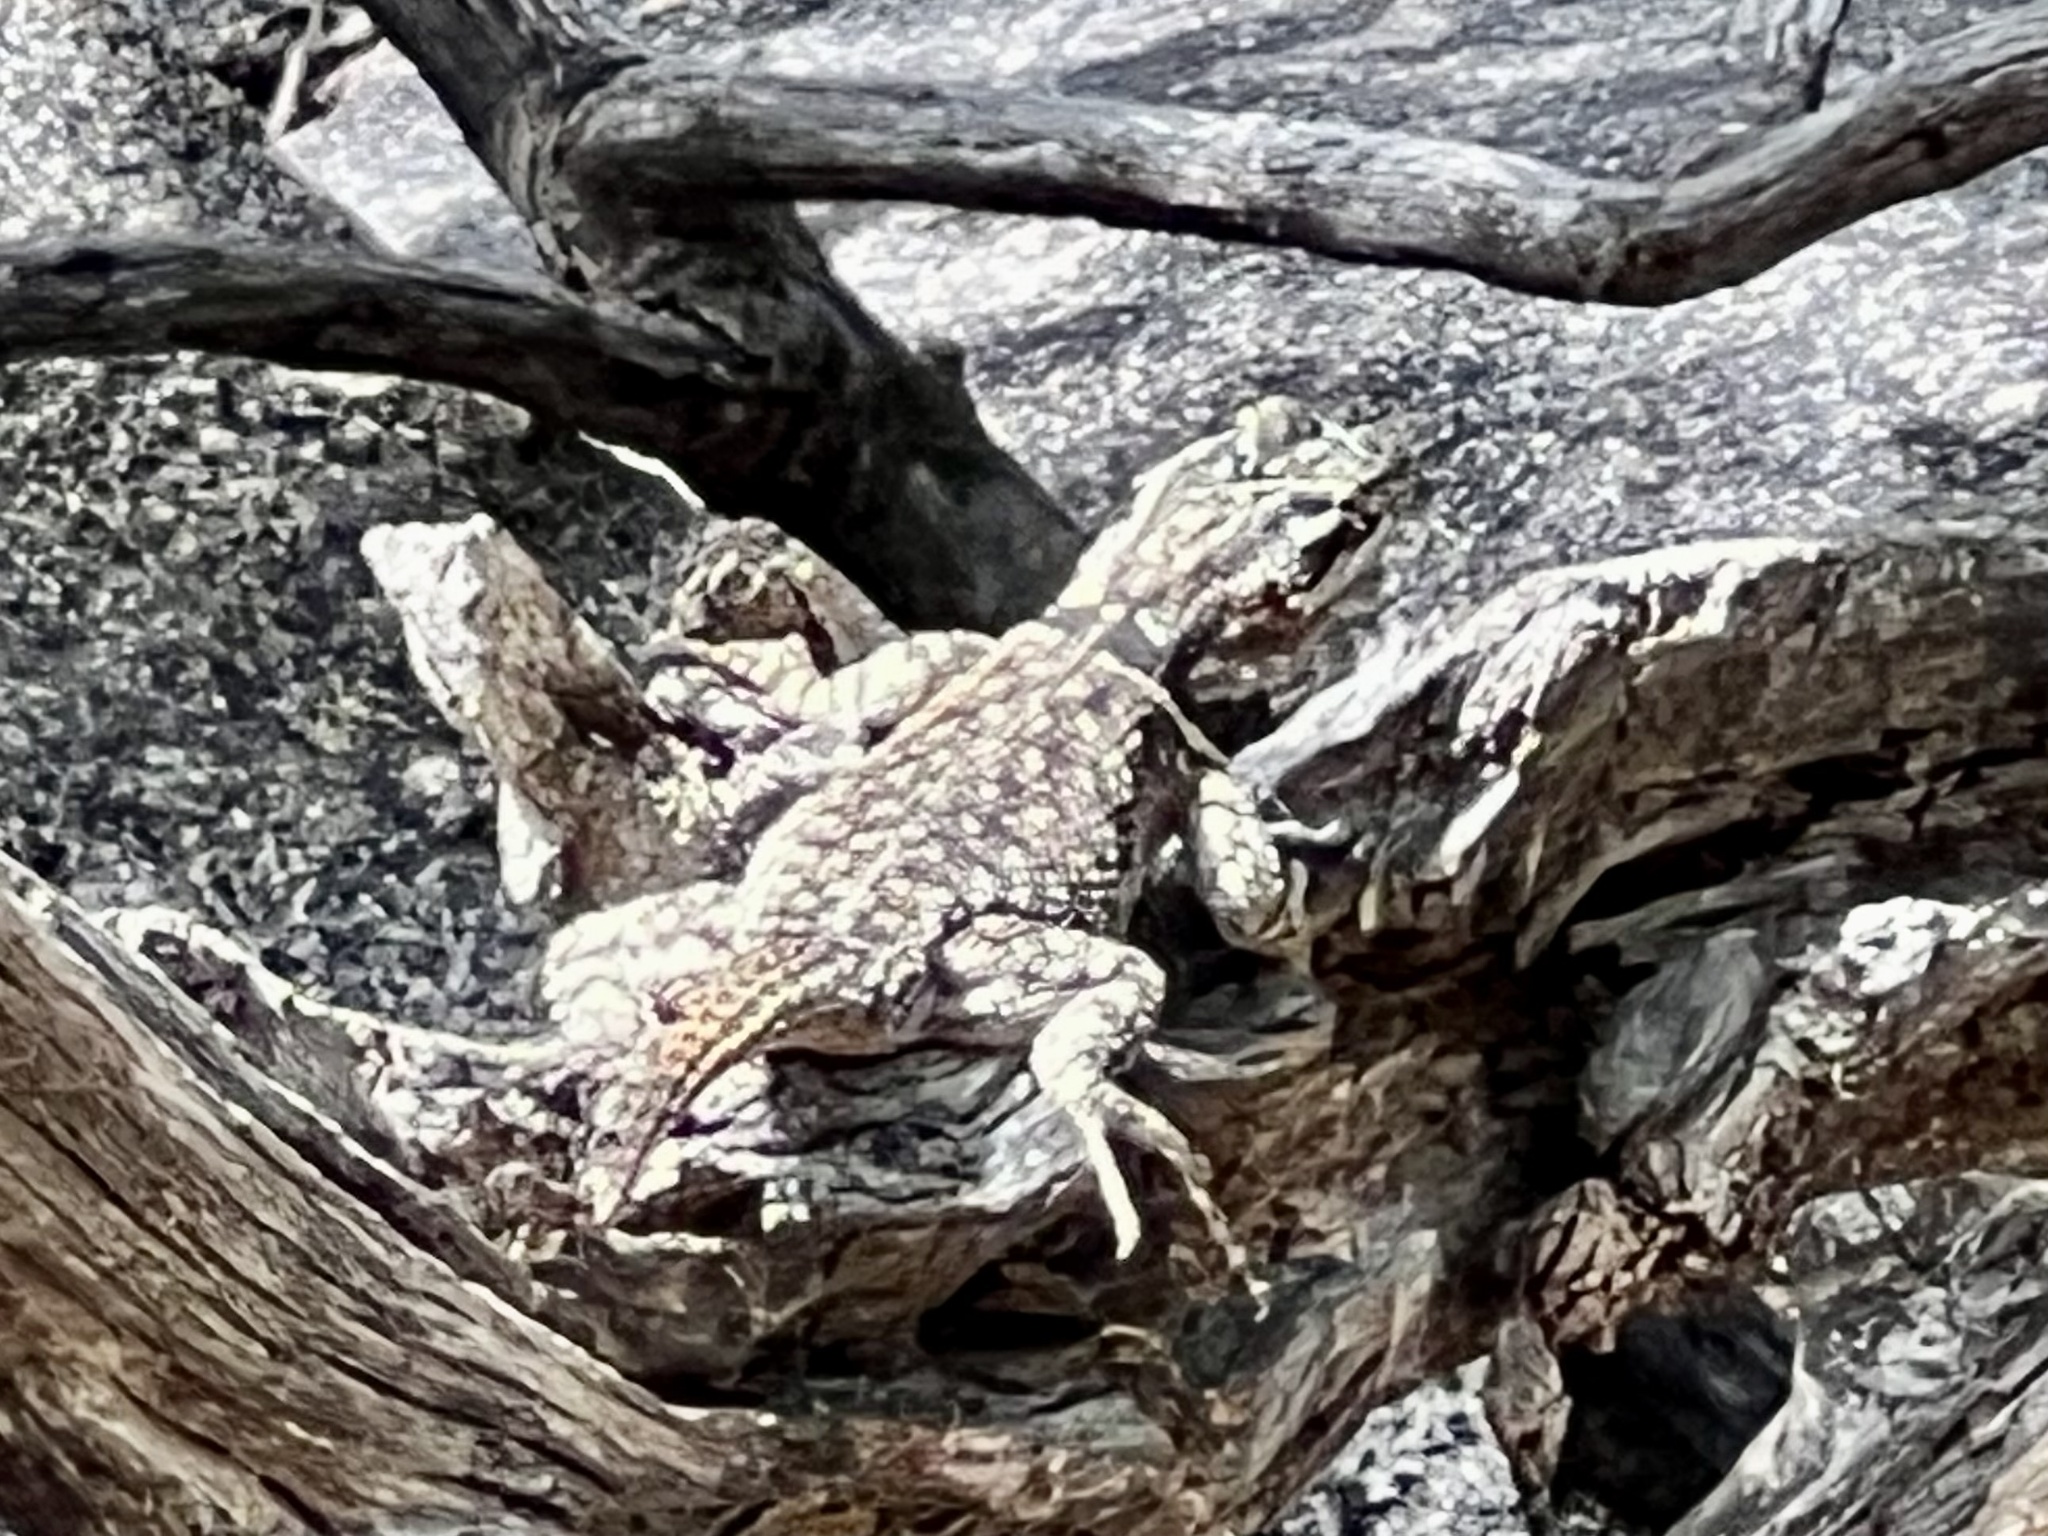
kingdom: Animalia
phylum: Chordata
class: Squamata
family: Phrynosomatidae
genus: Sceloporus
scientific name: Sceloporus jarrovii
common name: Yarrow's spiny lizard
